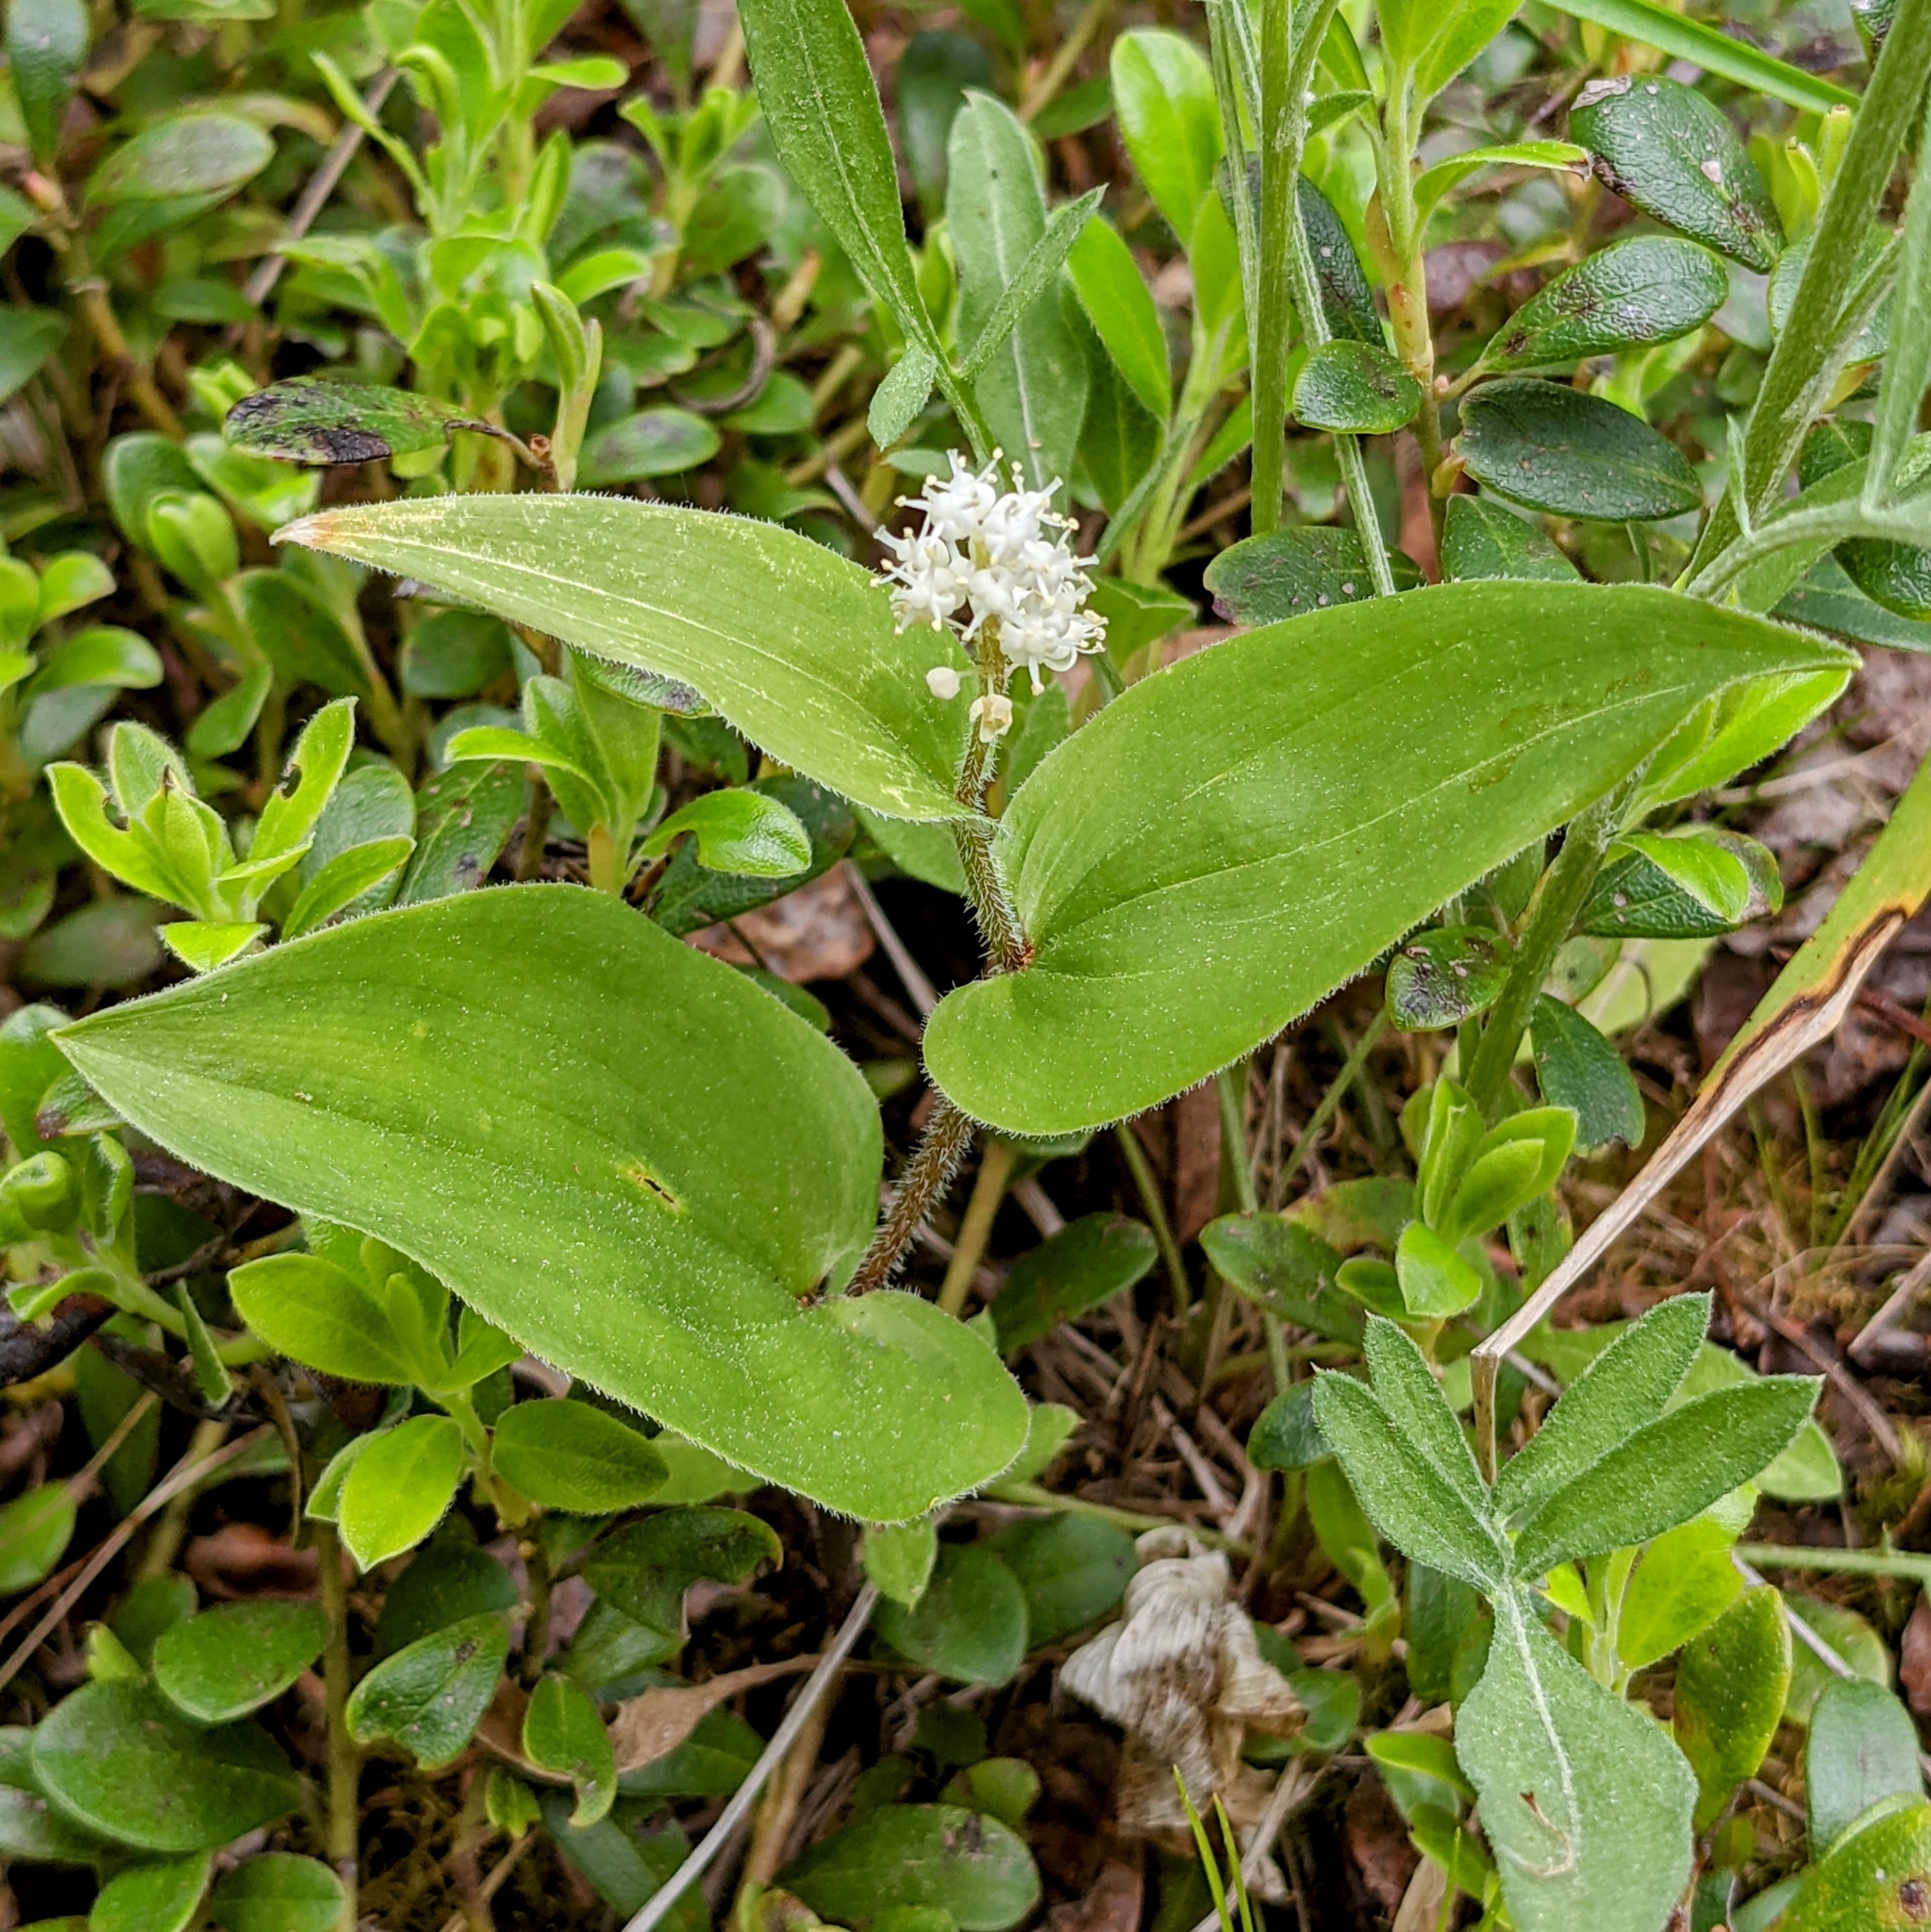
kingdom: Plantae
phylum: Tracheophyta
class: Liliopsida
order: Asparagales
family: Asparagaceae
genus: Maianthemum
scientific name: Maianthemum canadense
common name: False lily-of-the-valley
